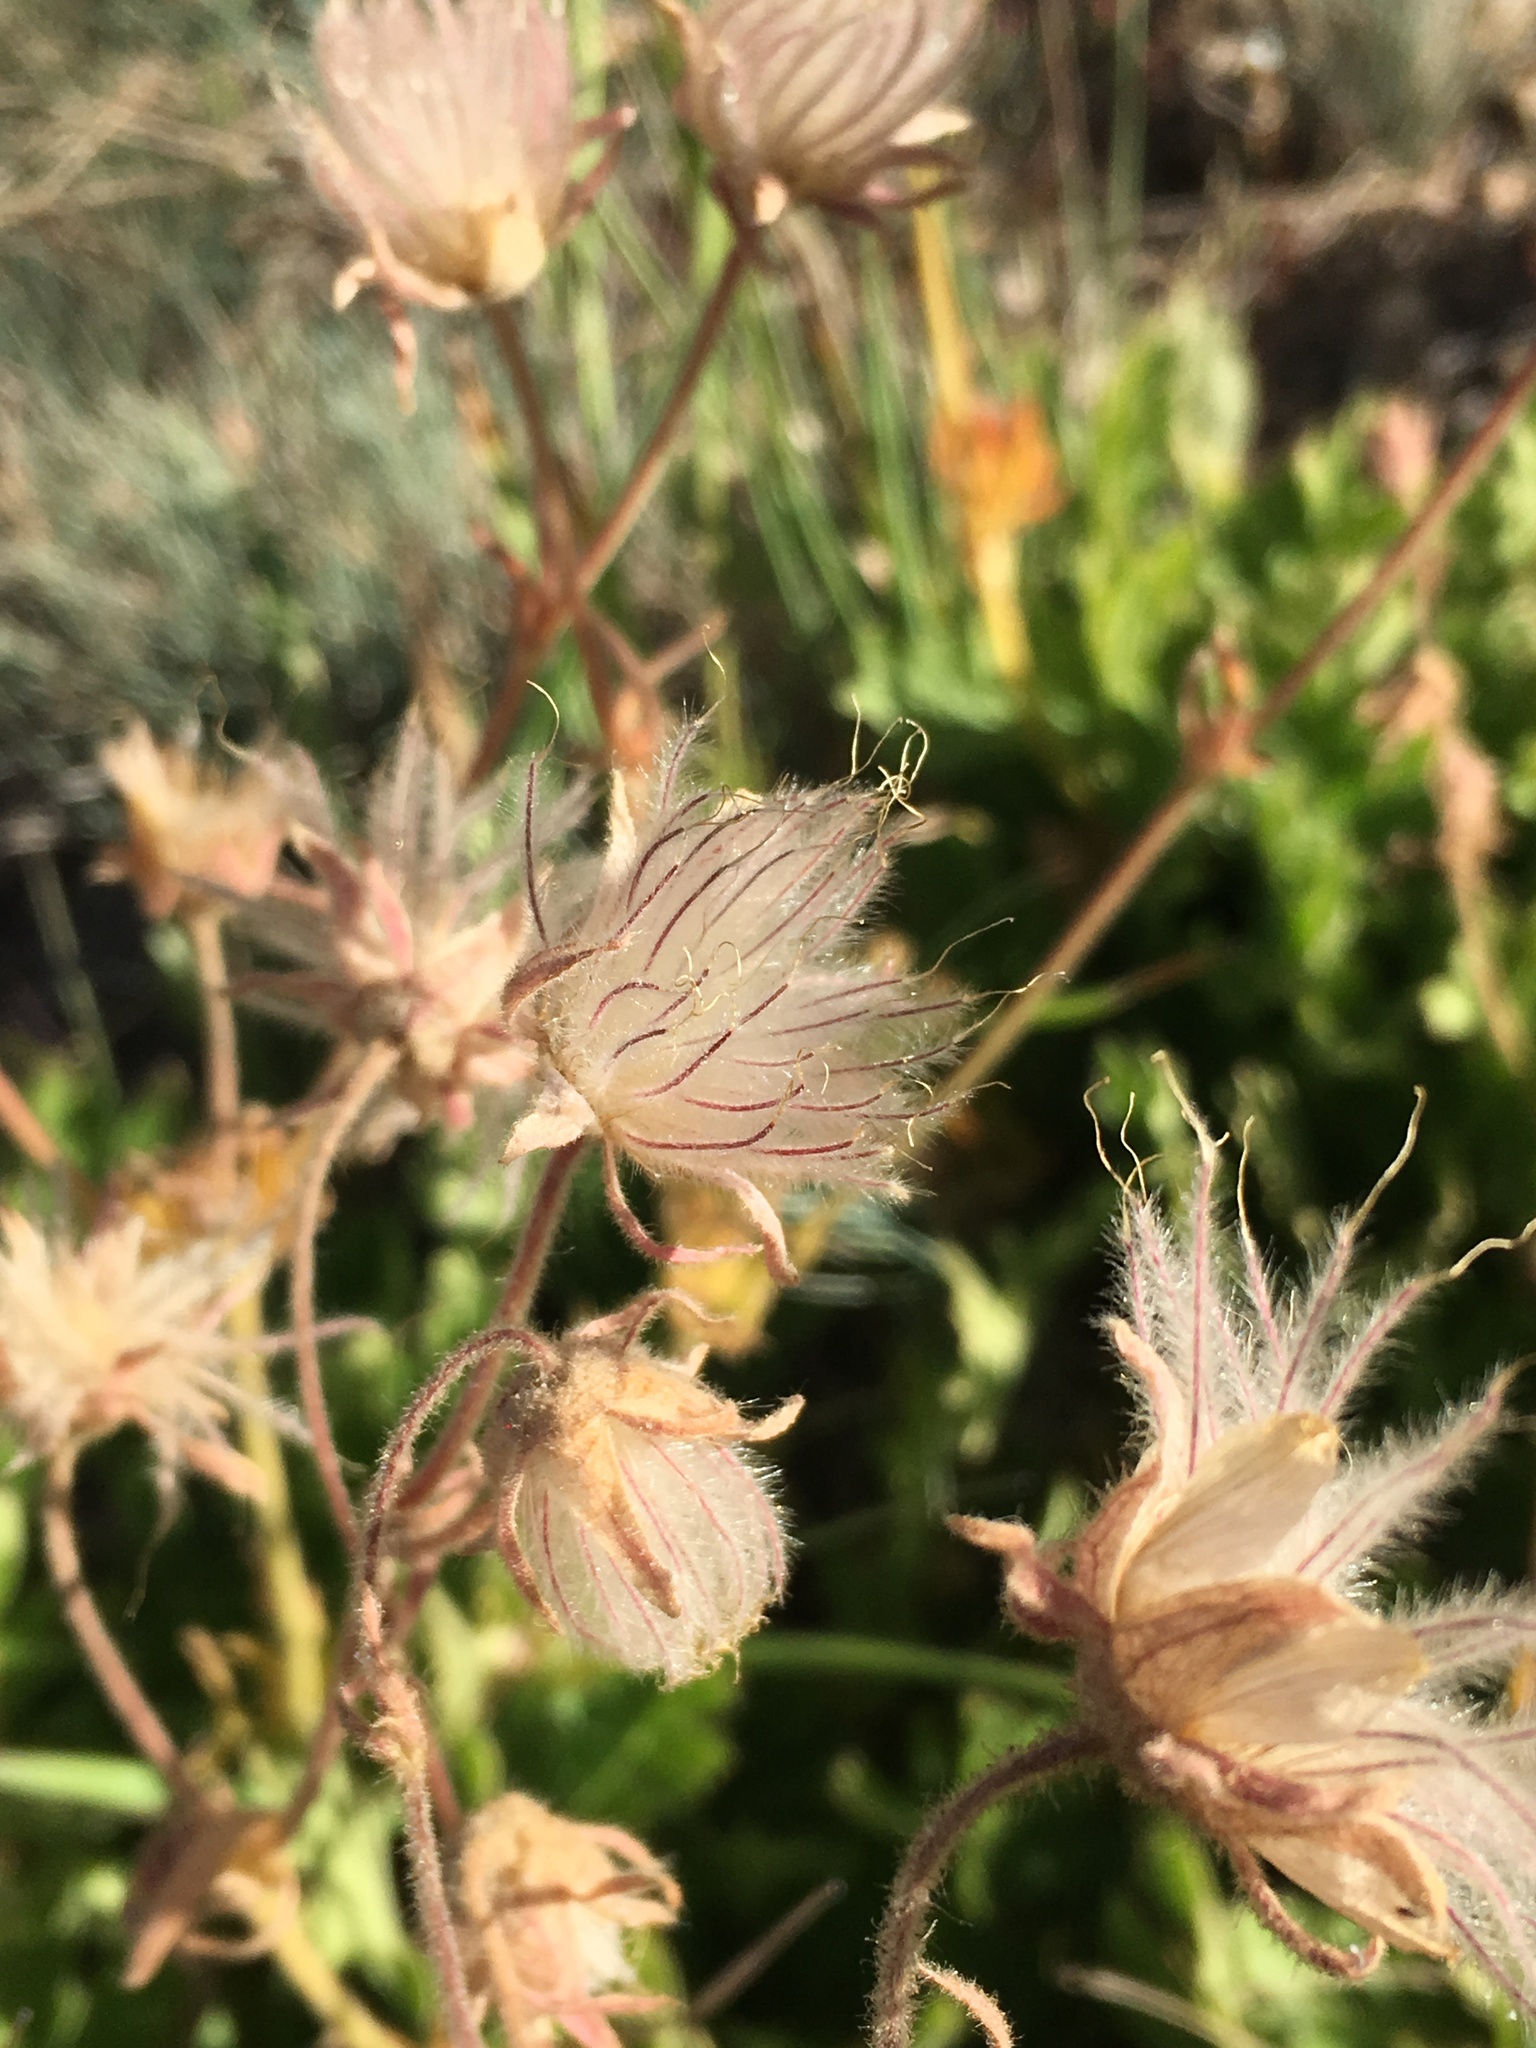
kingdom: Plantae
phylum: Tracheophyta
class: Magnoliopsida
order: Rosales
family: Rosaceae
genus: Geum
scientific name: Geum triflorum
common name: Old man's whiskers
